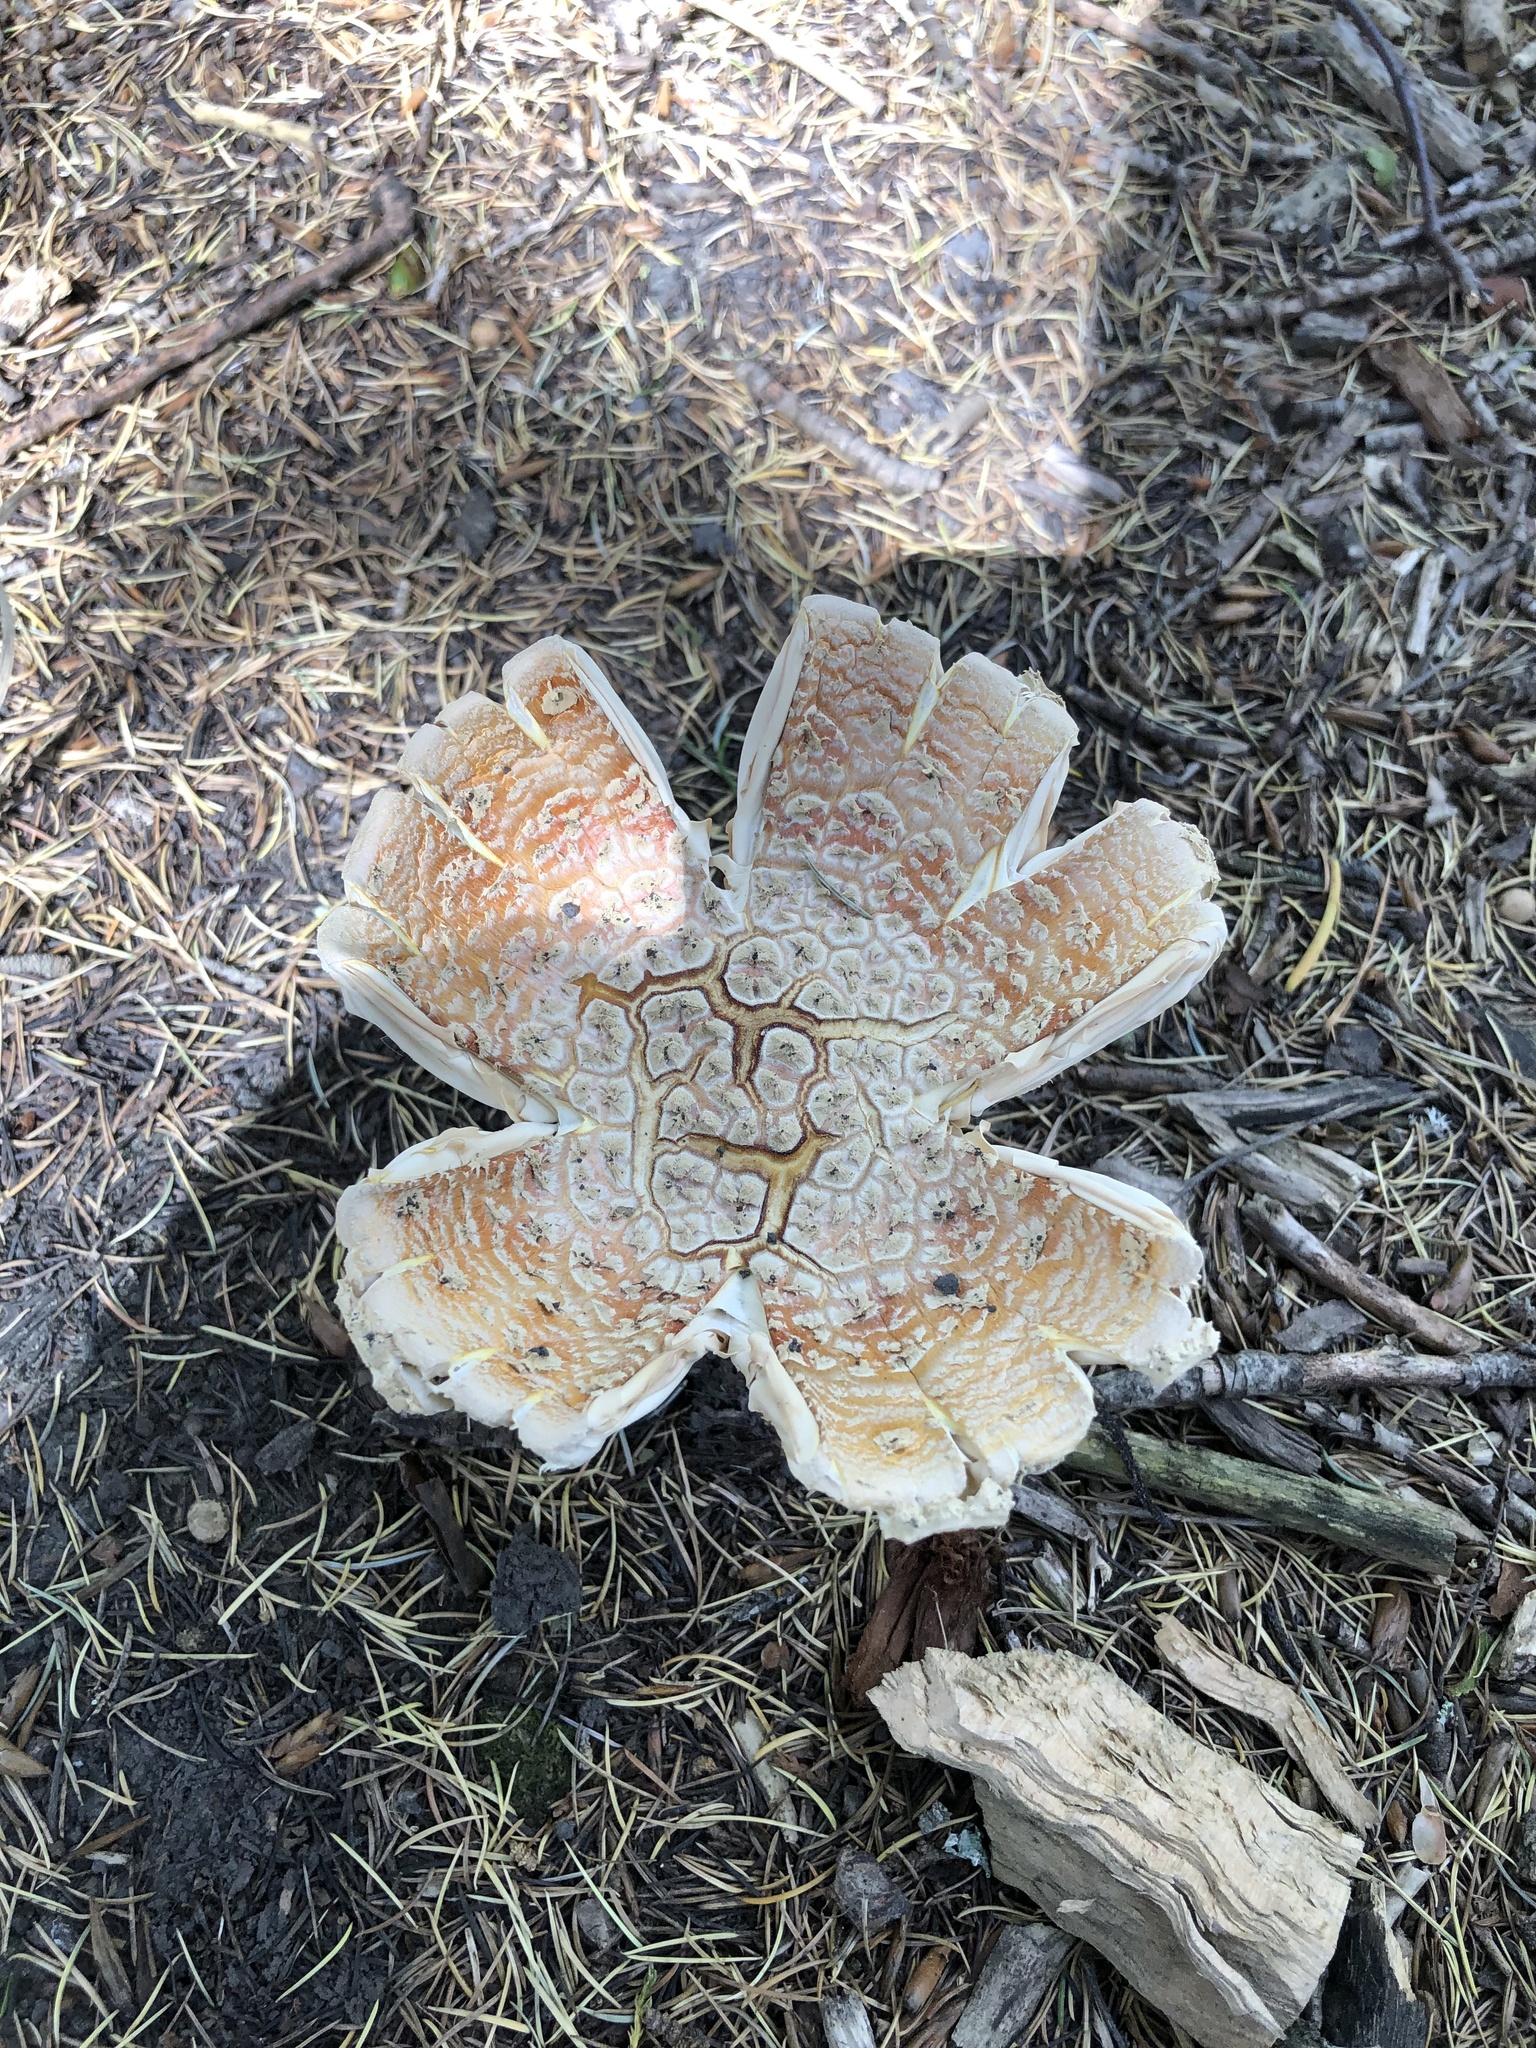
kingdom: Fungi
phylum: Basidiomycota
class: Agaricomycetes
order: Agaricales
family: Amanitaceae
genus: Amanita
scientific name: Amanita muscaria
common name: Fly agaric
